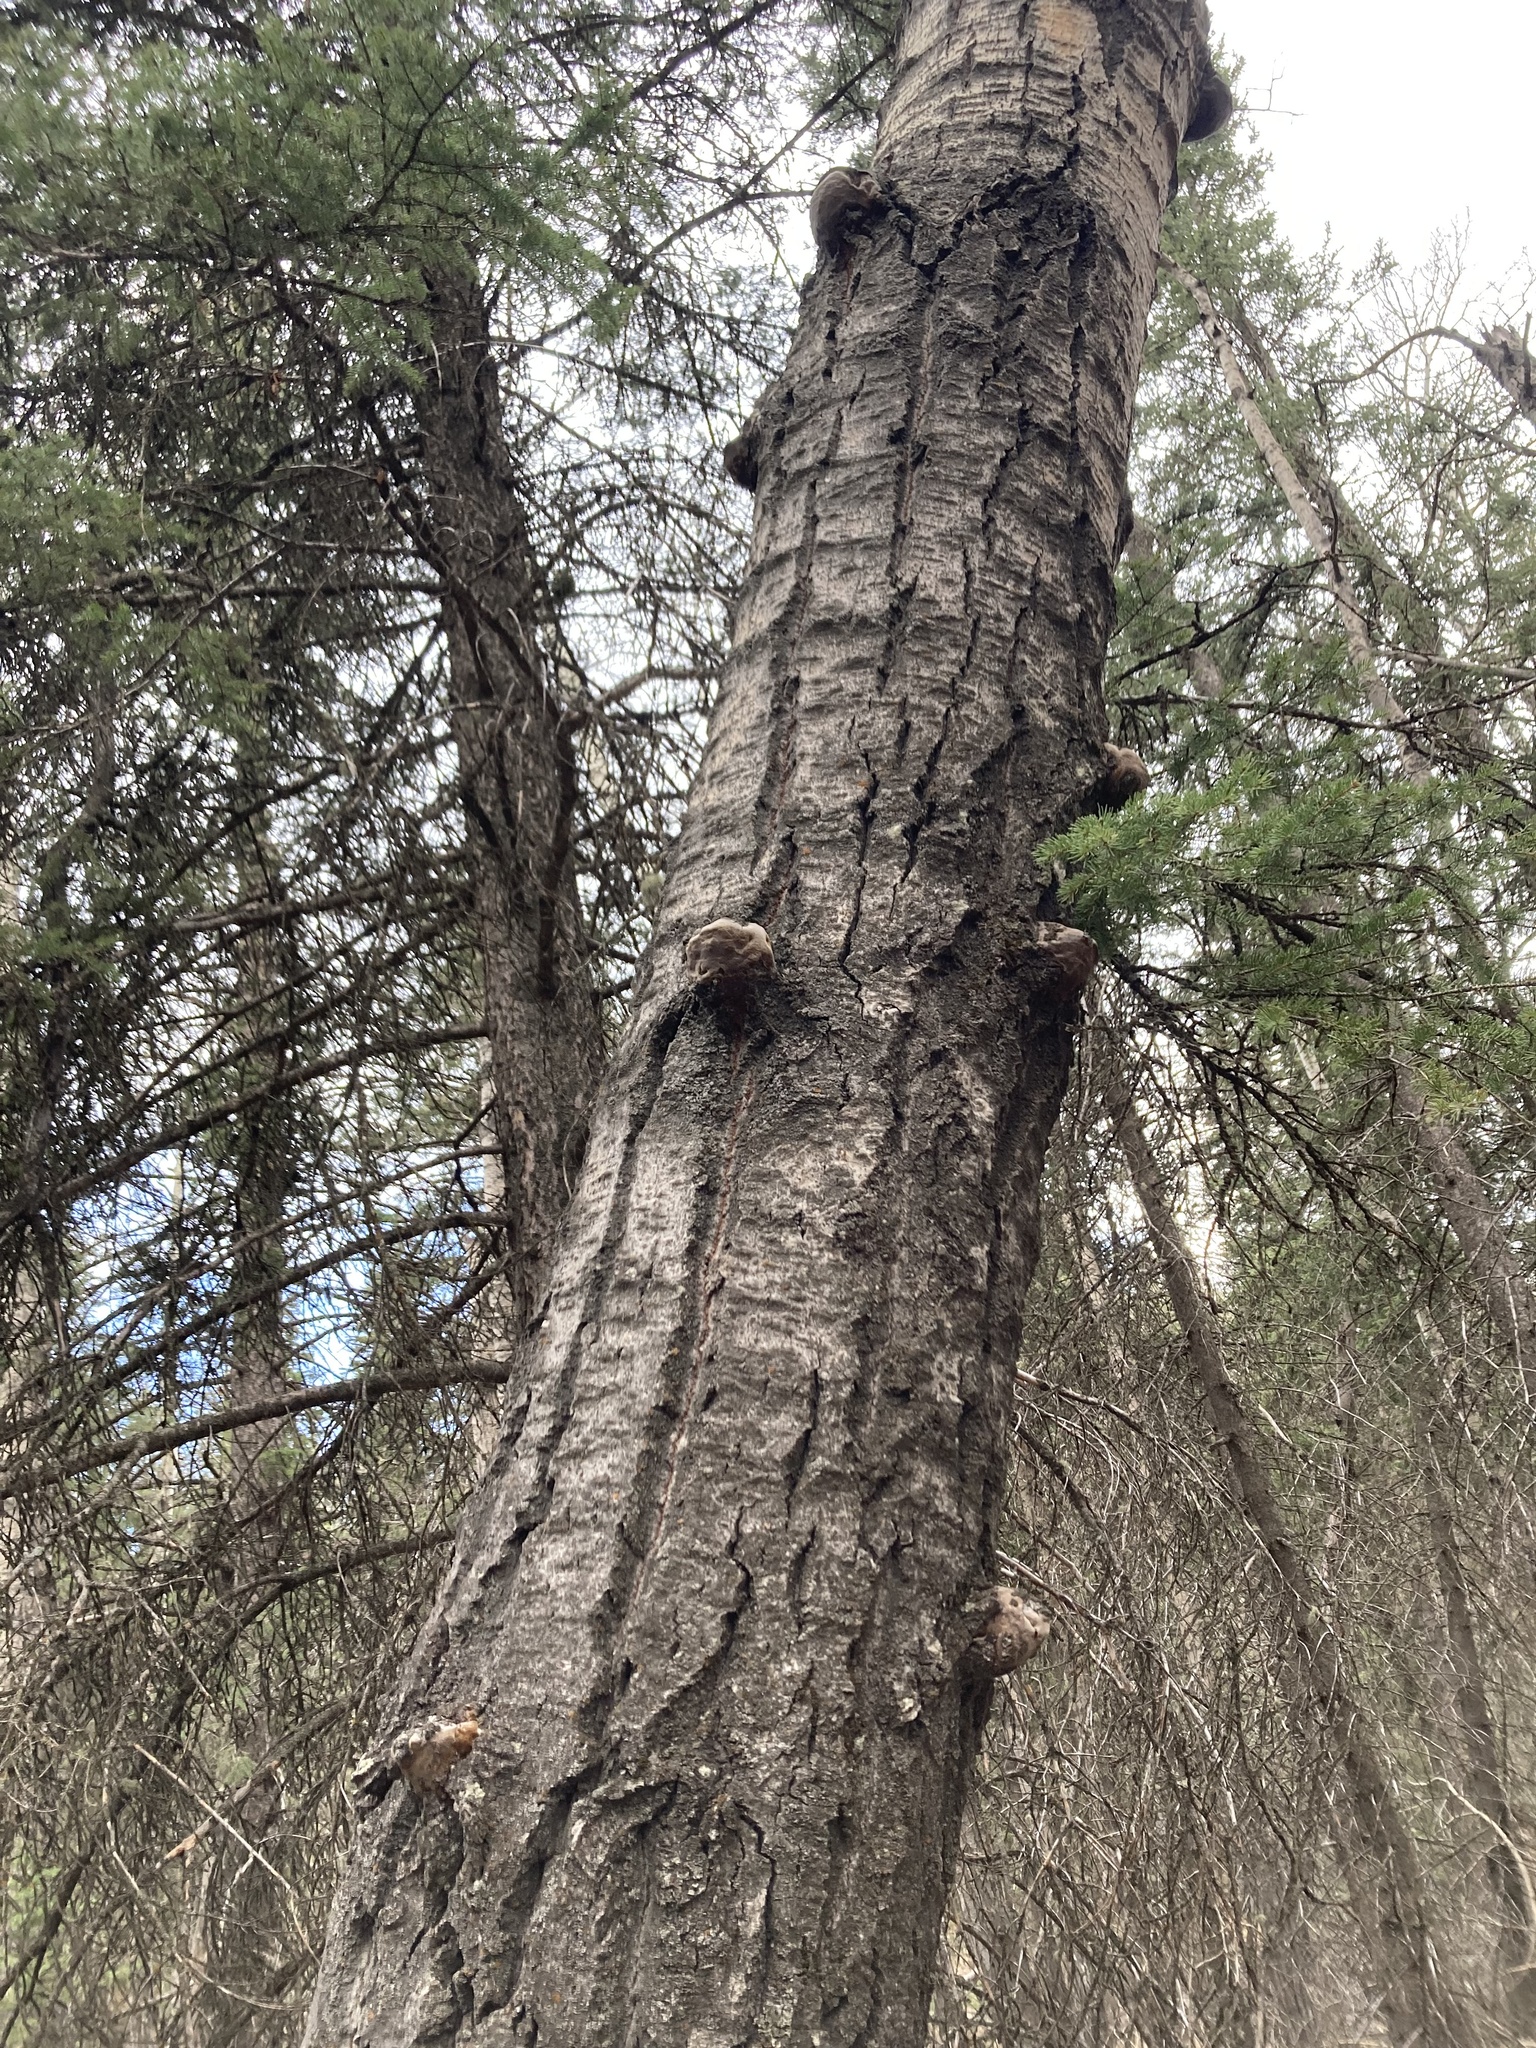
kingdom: Fungi
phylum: Basidiomycota
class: Agaricomycetes
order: Hymenochaetales
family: Hymenochaetaceae
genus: Phellinus
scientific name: Phellinus tremulae
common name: Aspen bracket
